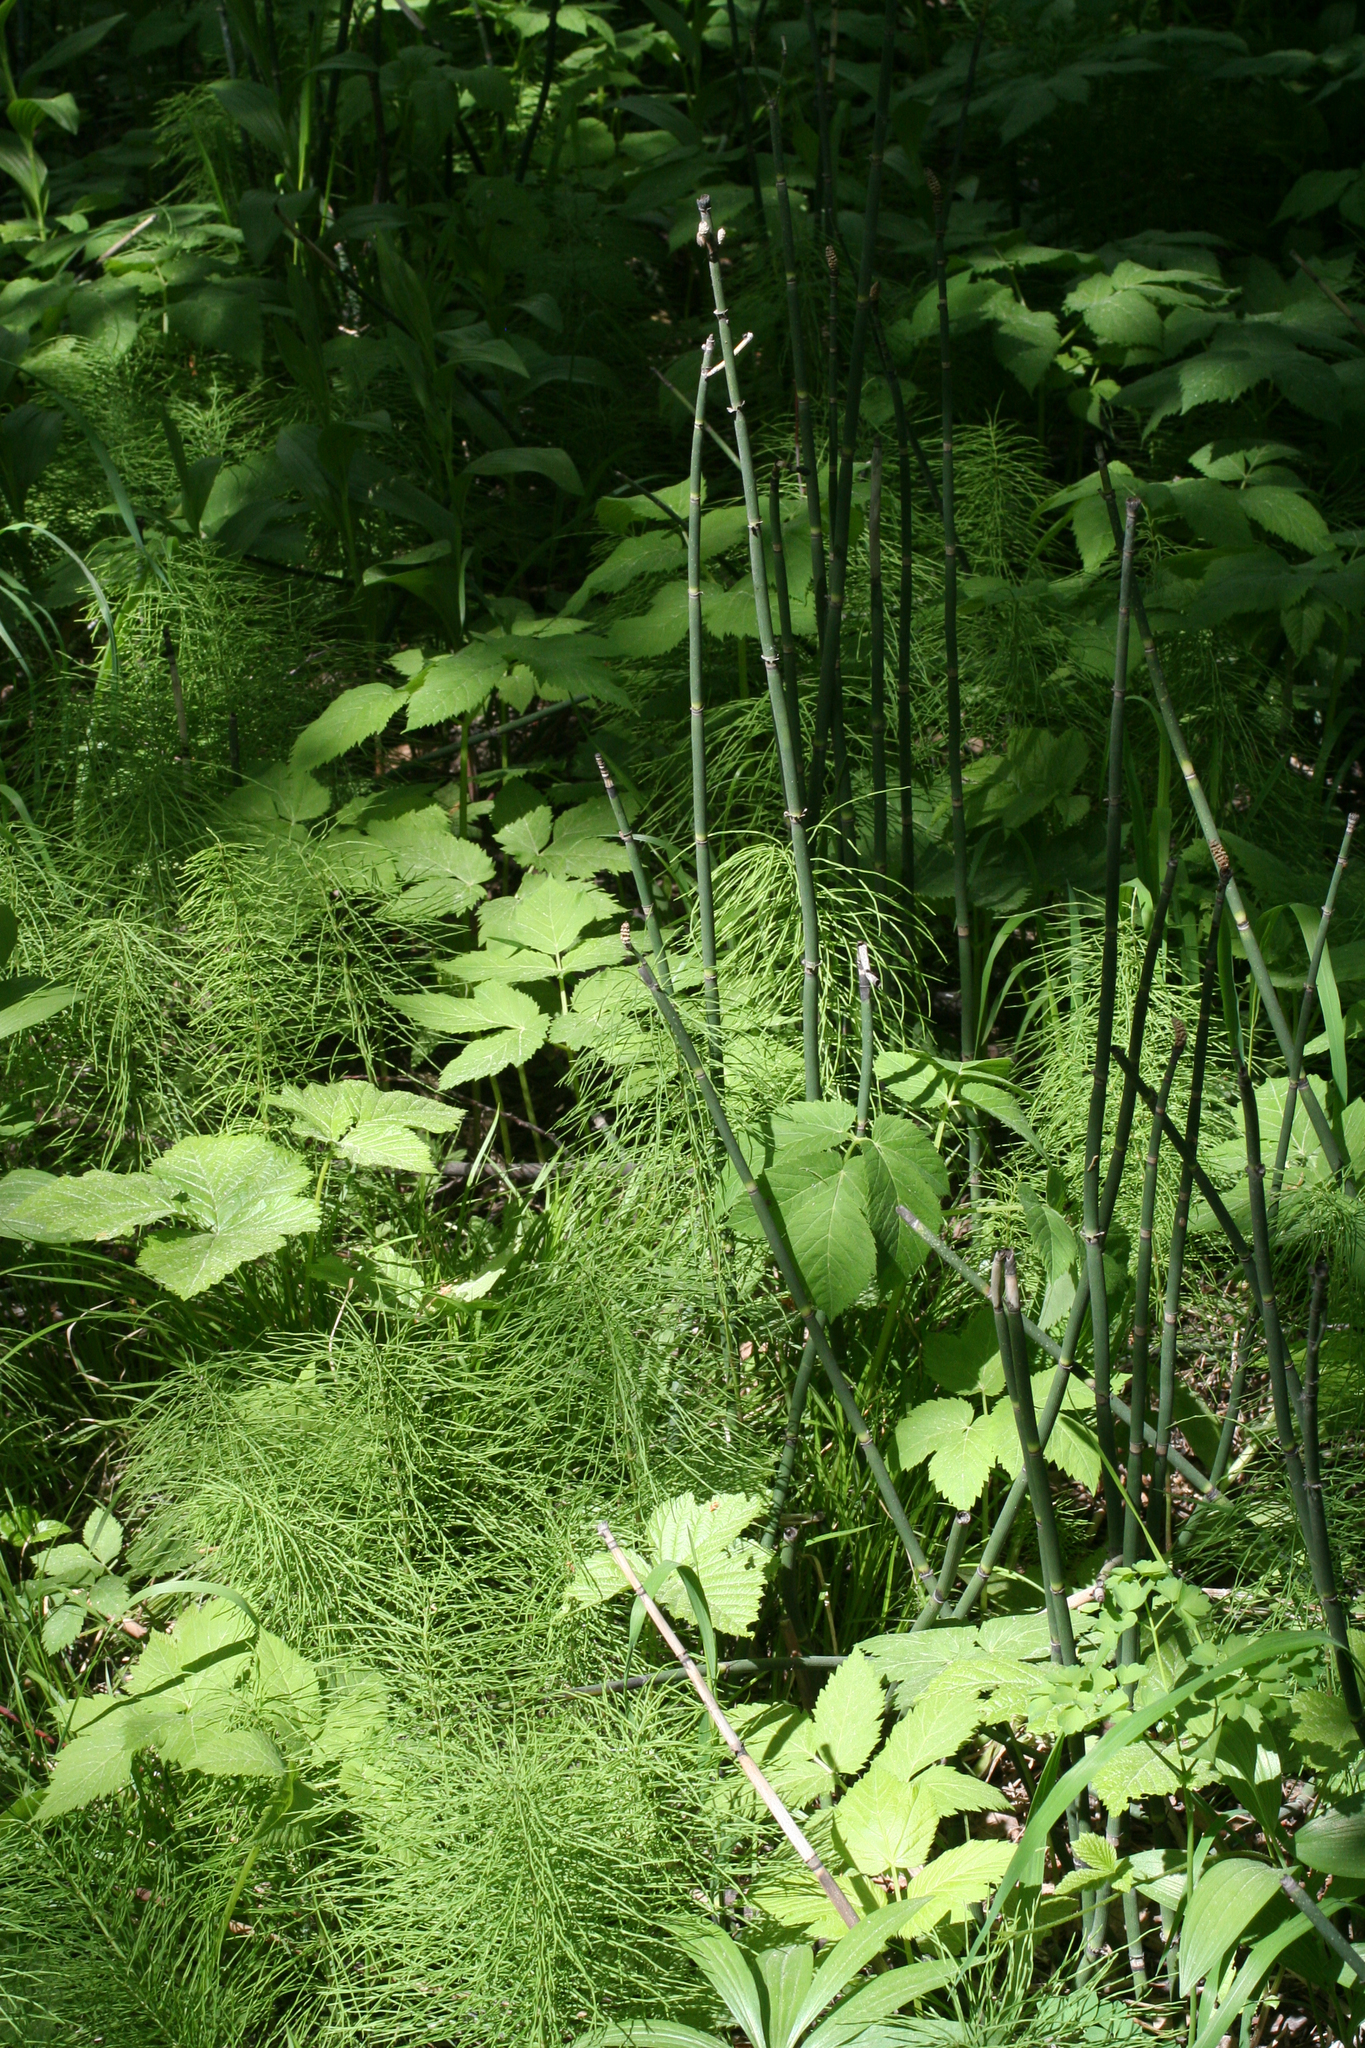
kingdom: Plantae
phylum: Tracheophyta
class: Polypodiopsida
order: Equisetales
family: Equisetaceae
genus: Equisetum
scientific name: Equisetum pratense
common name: Meadow horsetail
